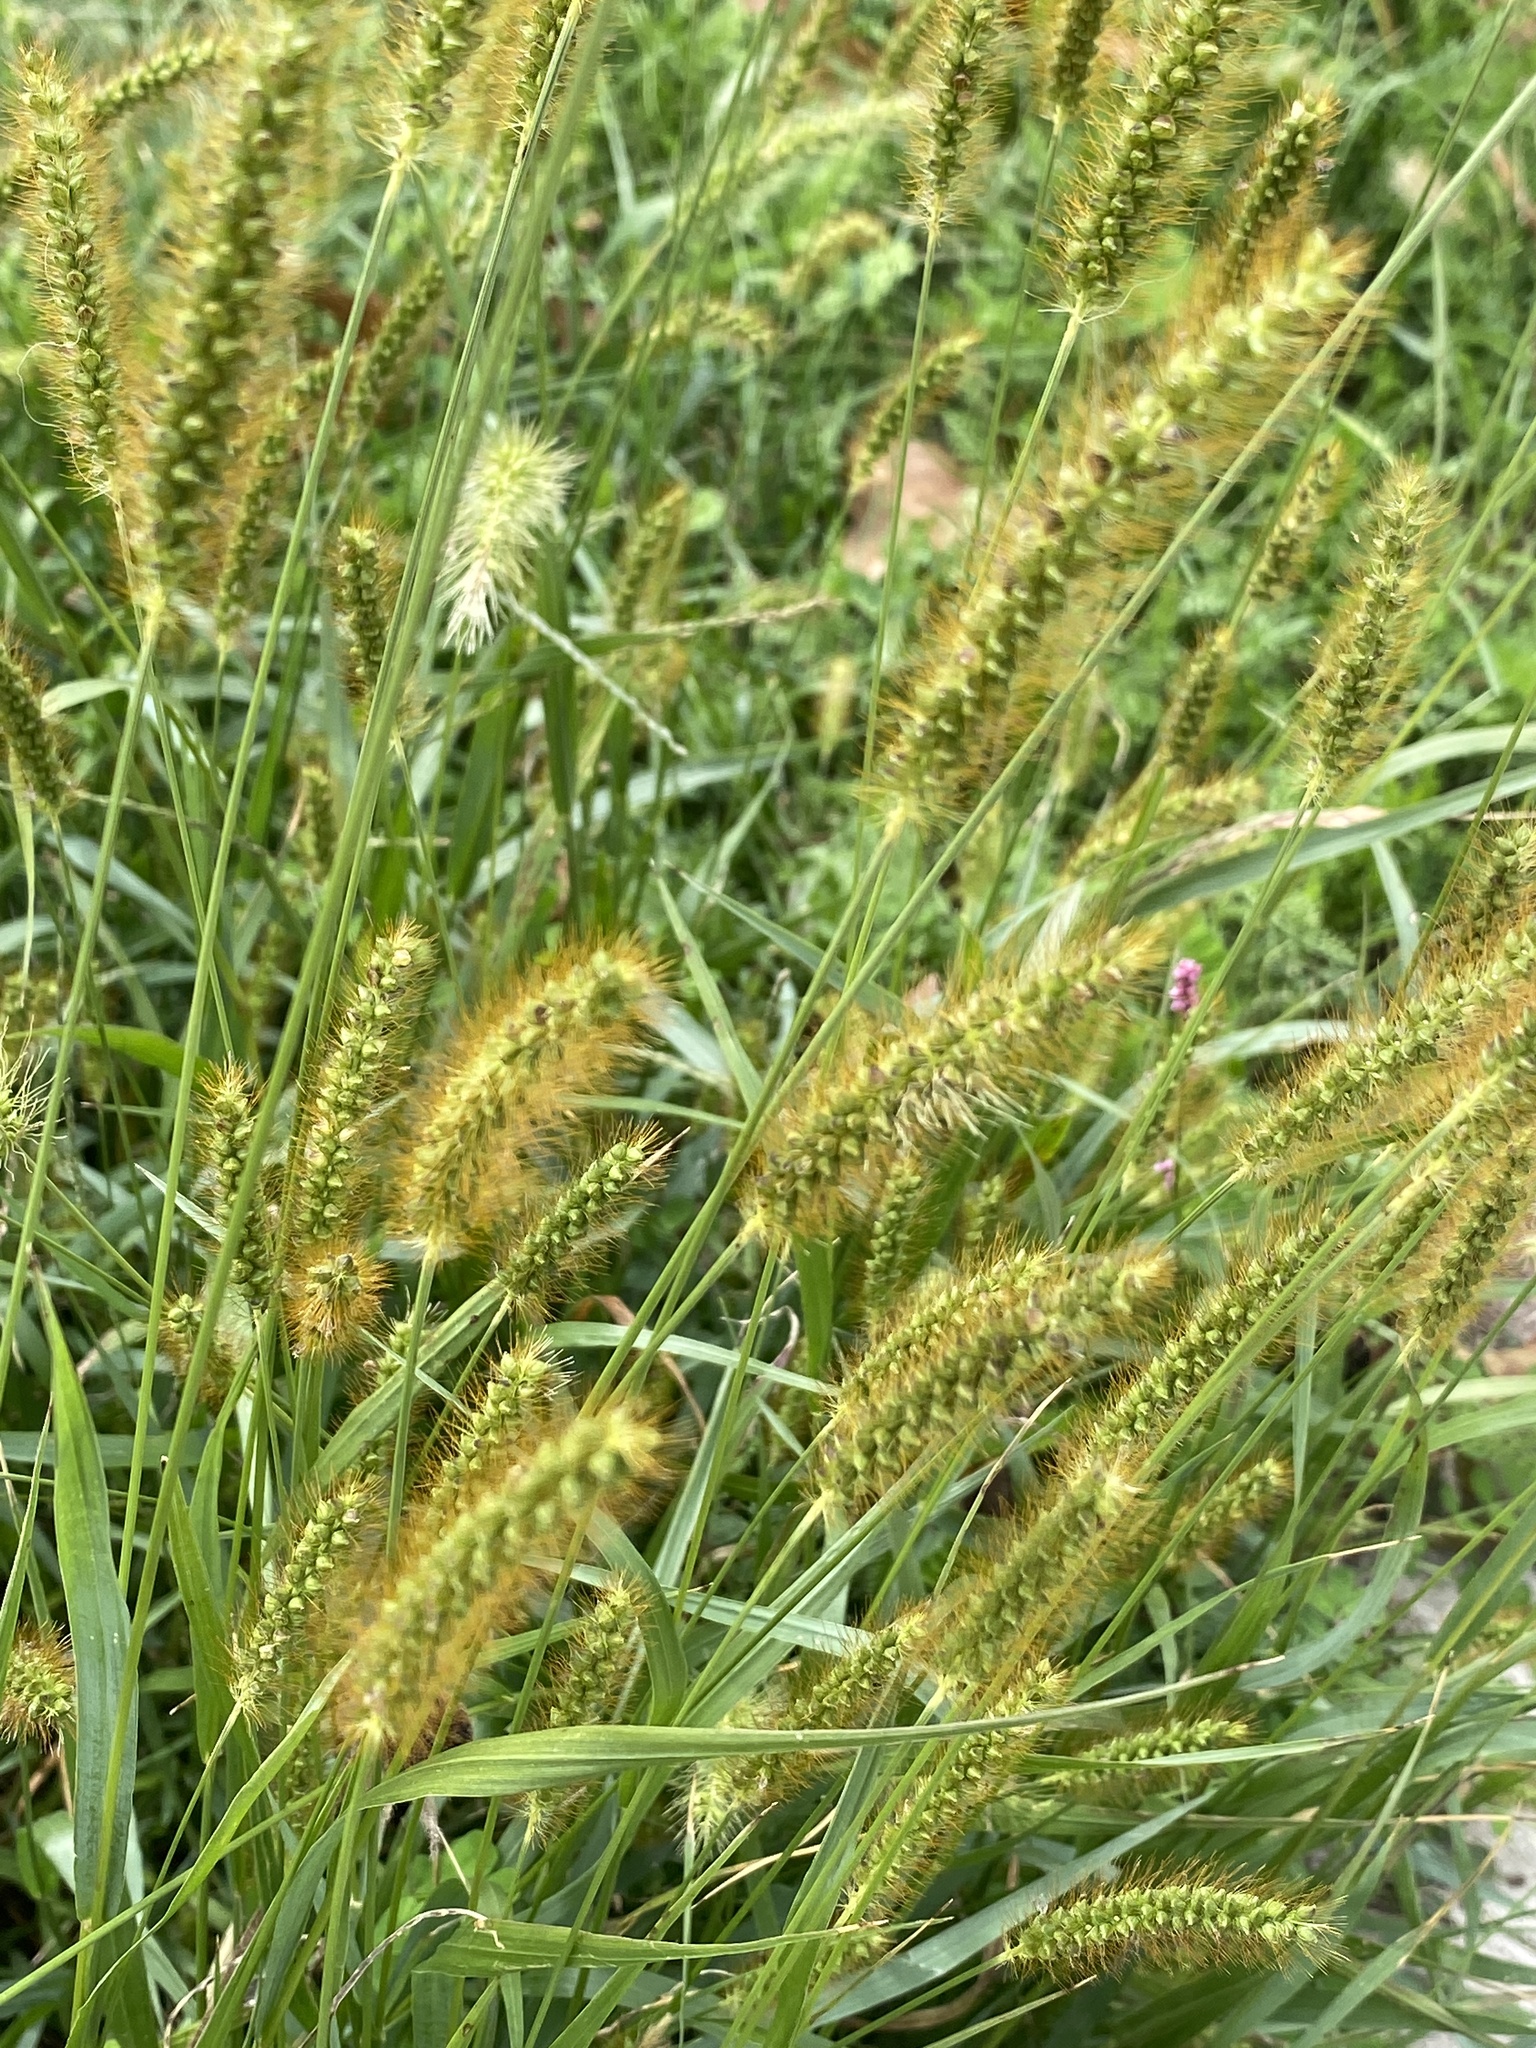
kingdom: Plantae
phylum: Tracheophyta
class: Liliopsida
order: Poales
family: Poaceae
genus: Setaria
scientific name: Setaria pumila
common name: Yellow bristle-grass
